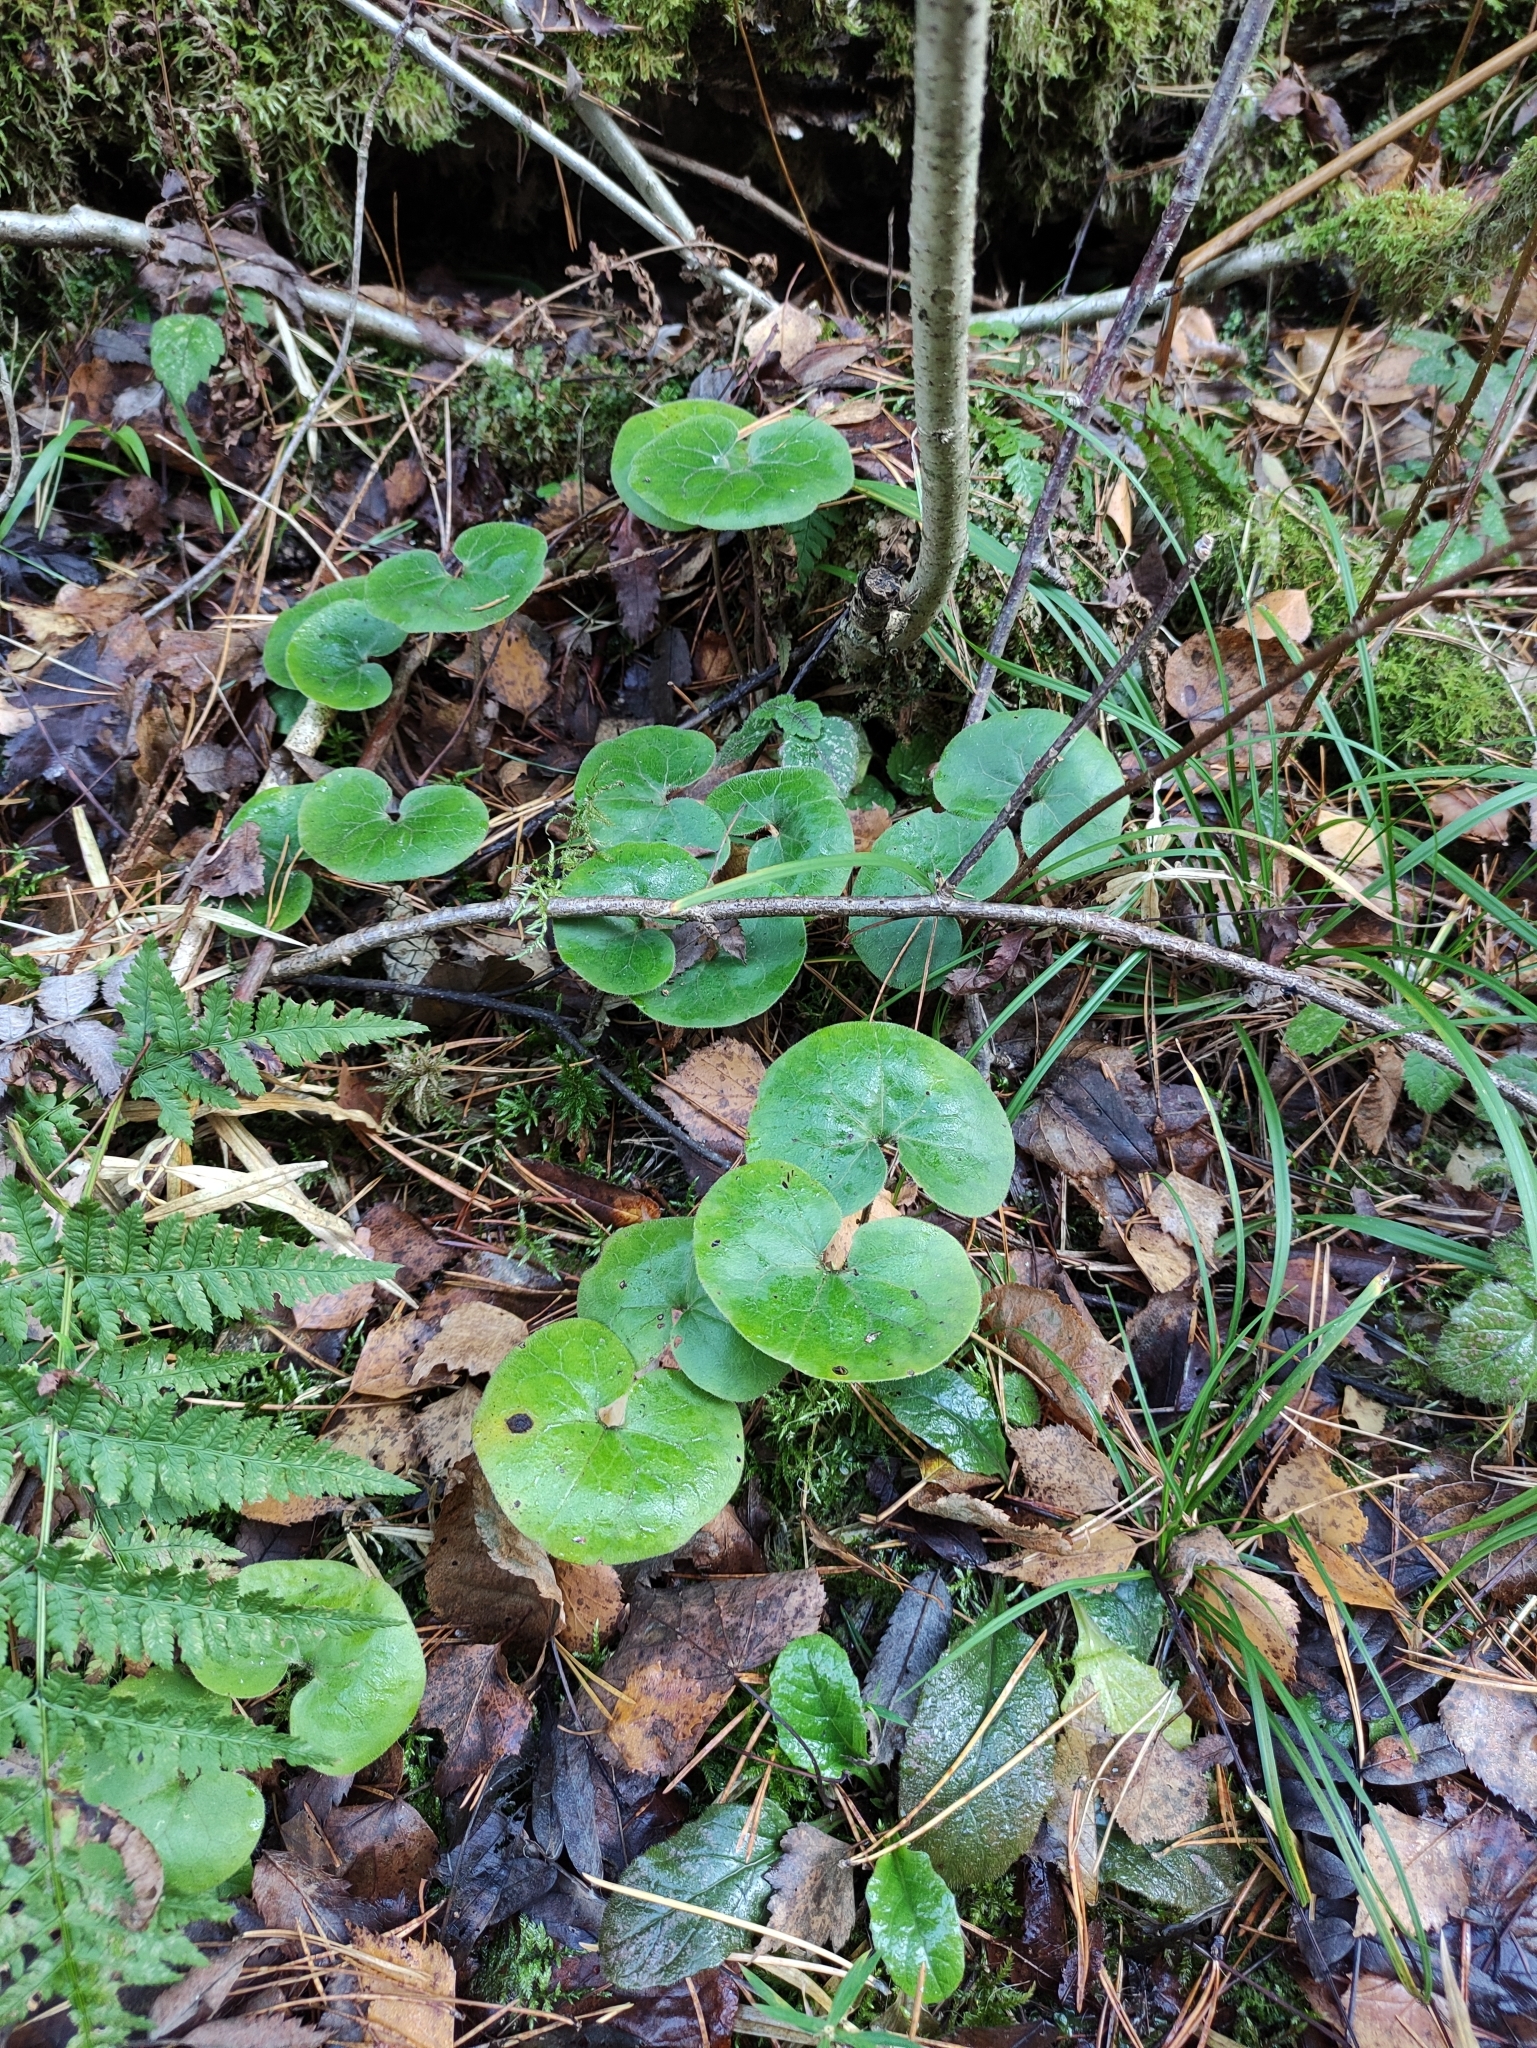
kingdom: Plantae
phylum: Tracheophyta
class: Magnoliopsida
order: Piperales
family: Aristolochiaceae
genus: Asarum
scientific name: Asarum europaeum
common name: Asarabacca
